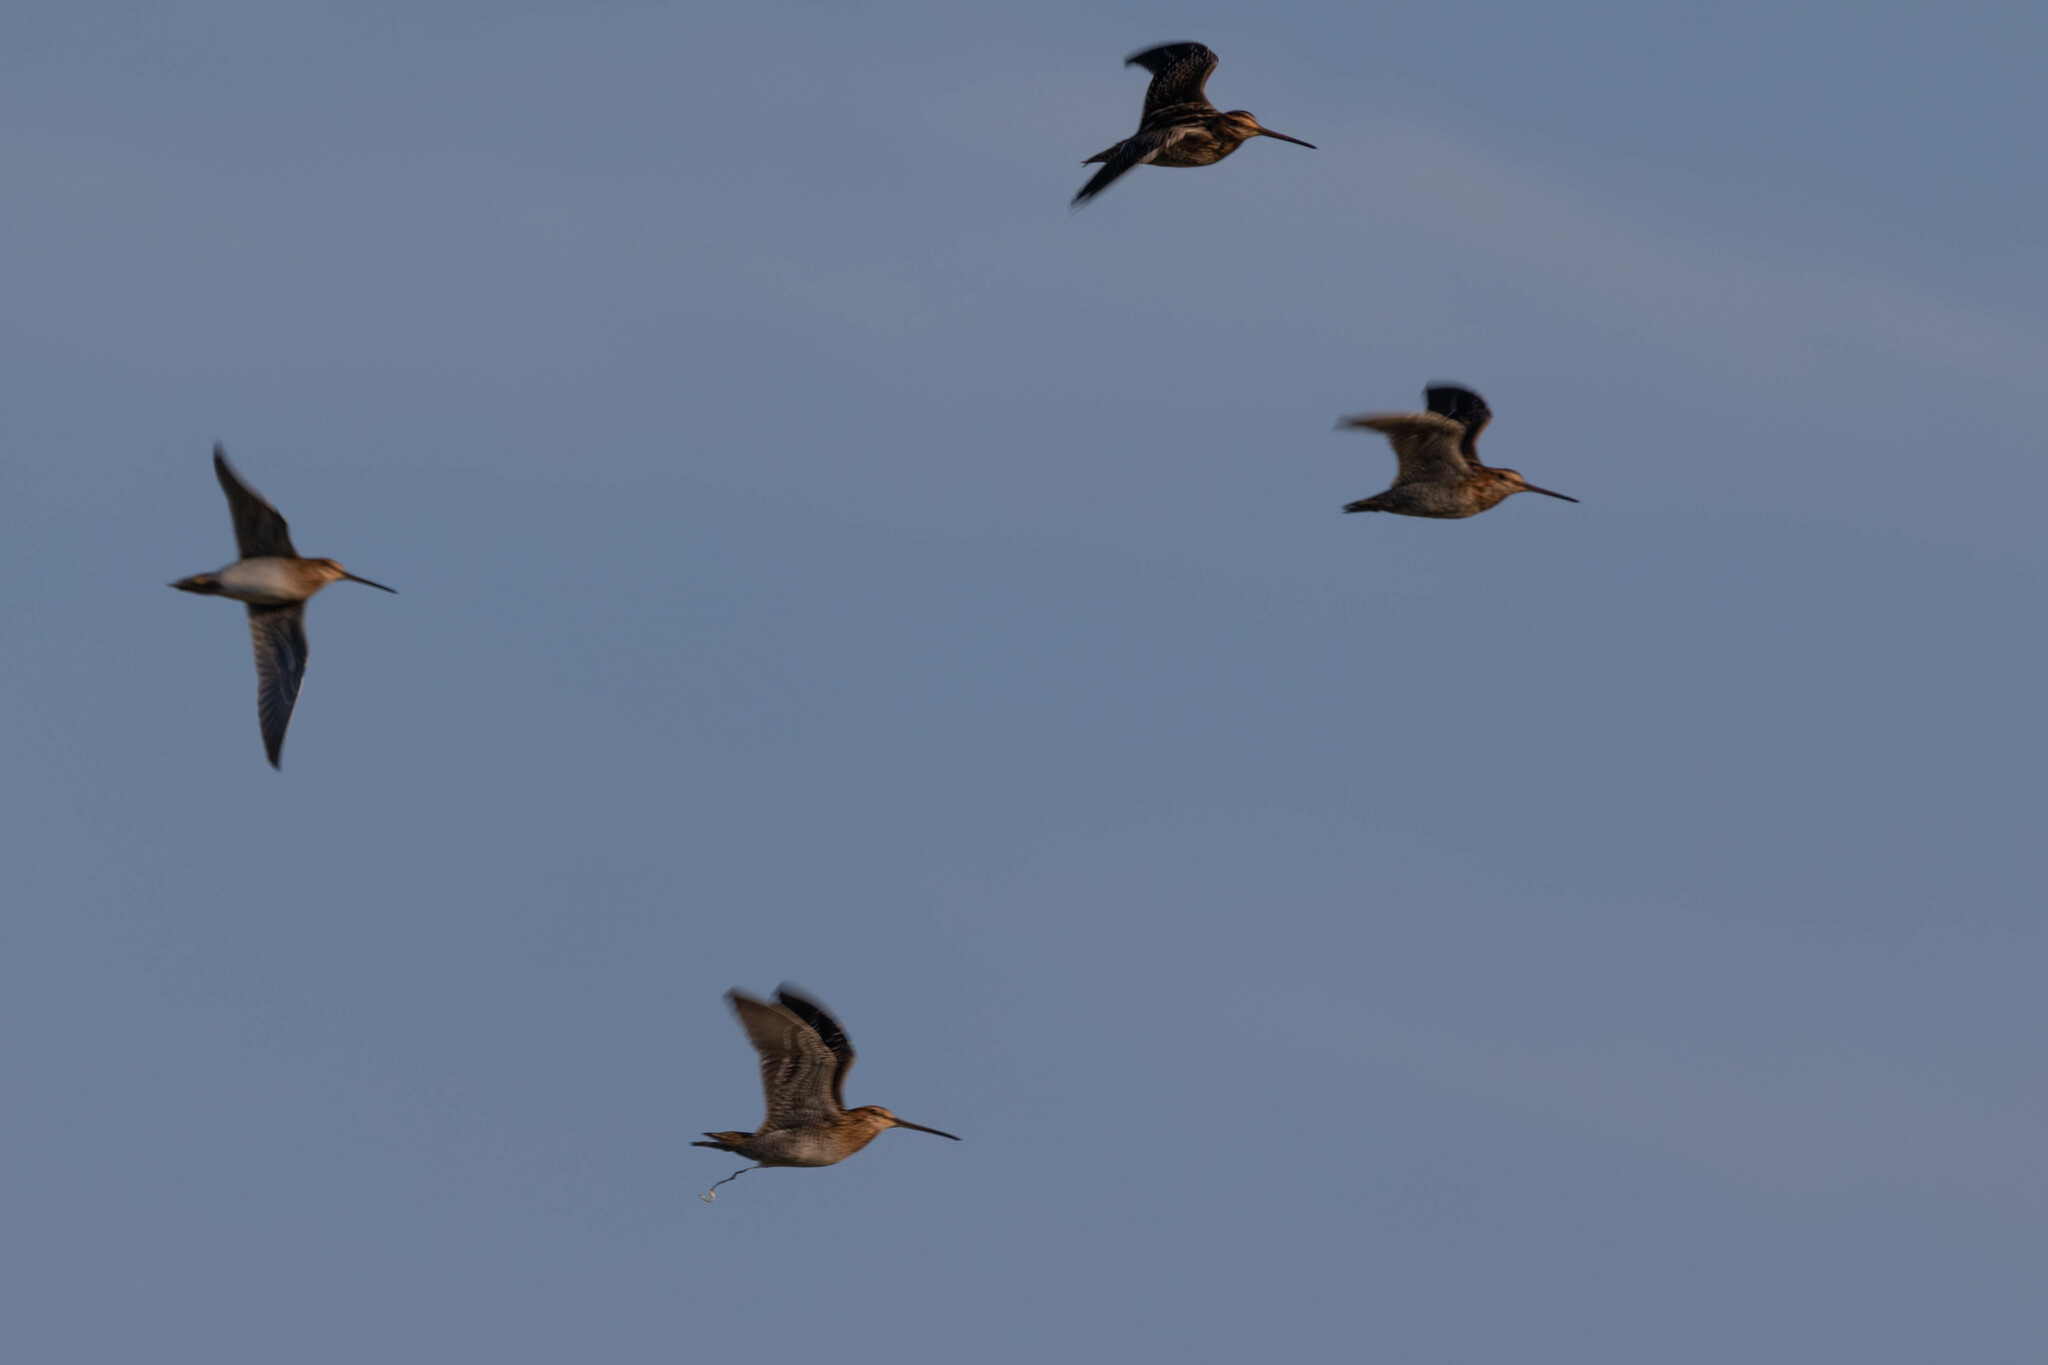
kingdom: Animalia
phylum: Chordata
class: Aves
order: Charadriiformes
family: Scolopacidae
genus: Gallinago
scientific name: Gallinago delicata
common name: Wilson's snipe
